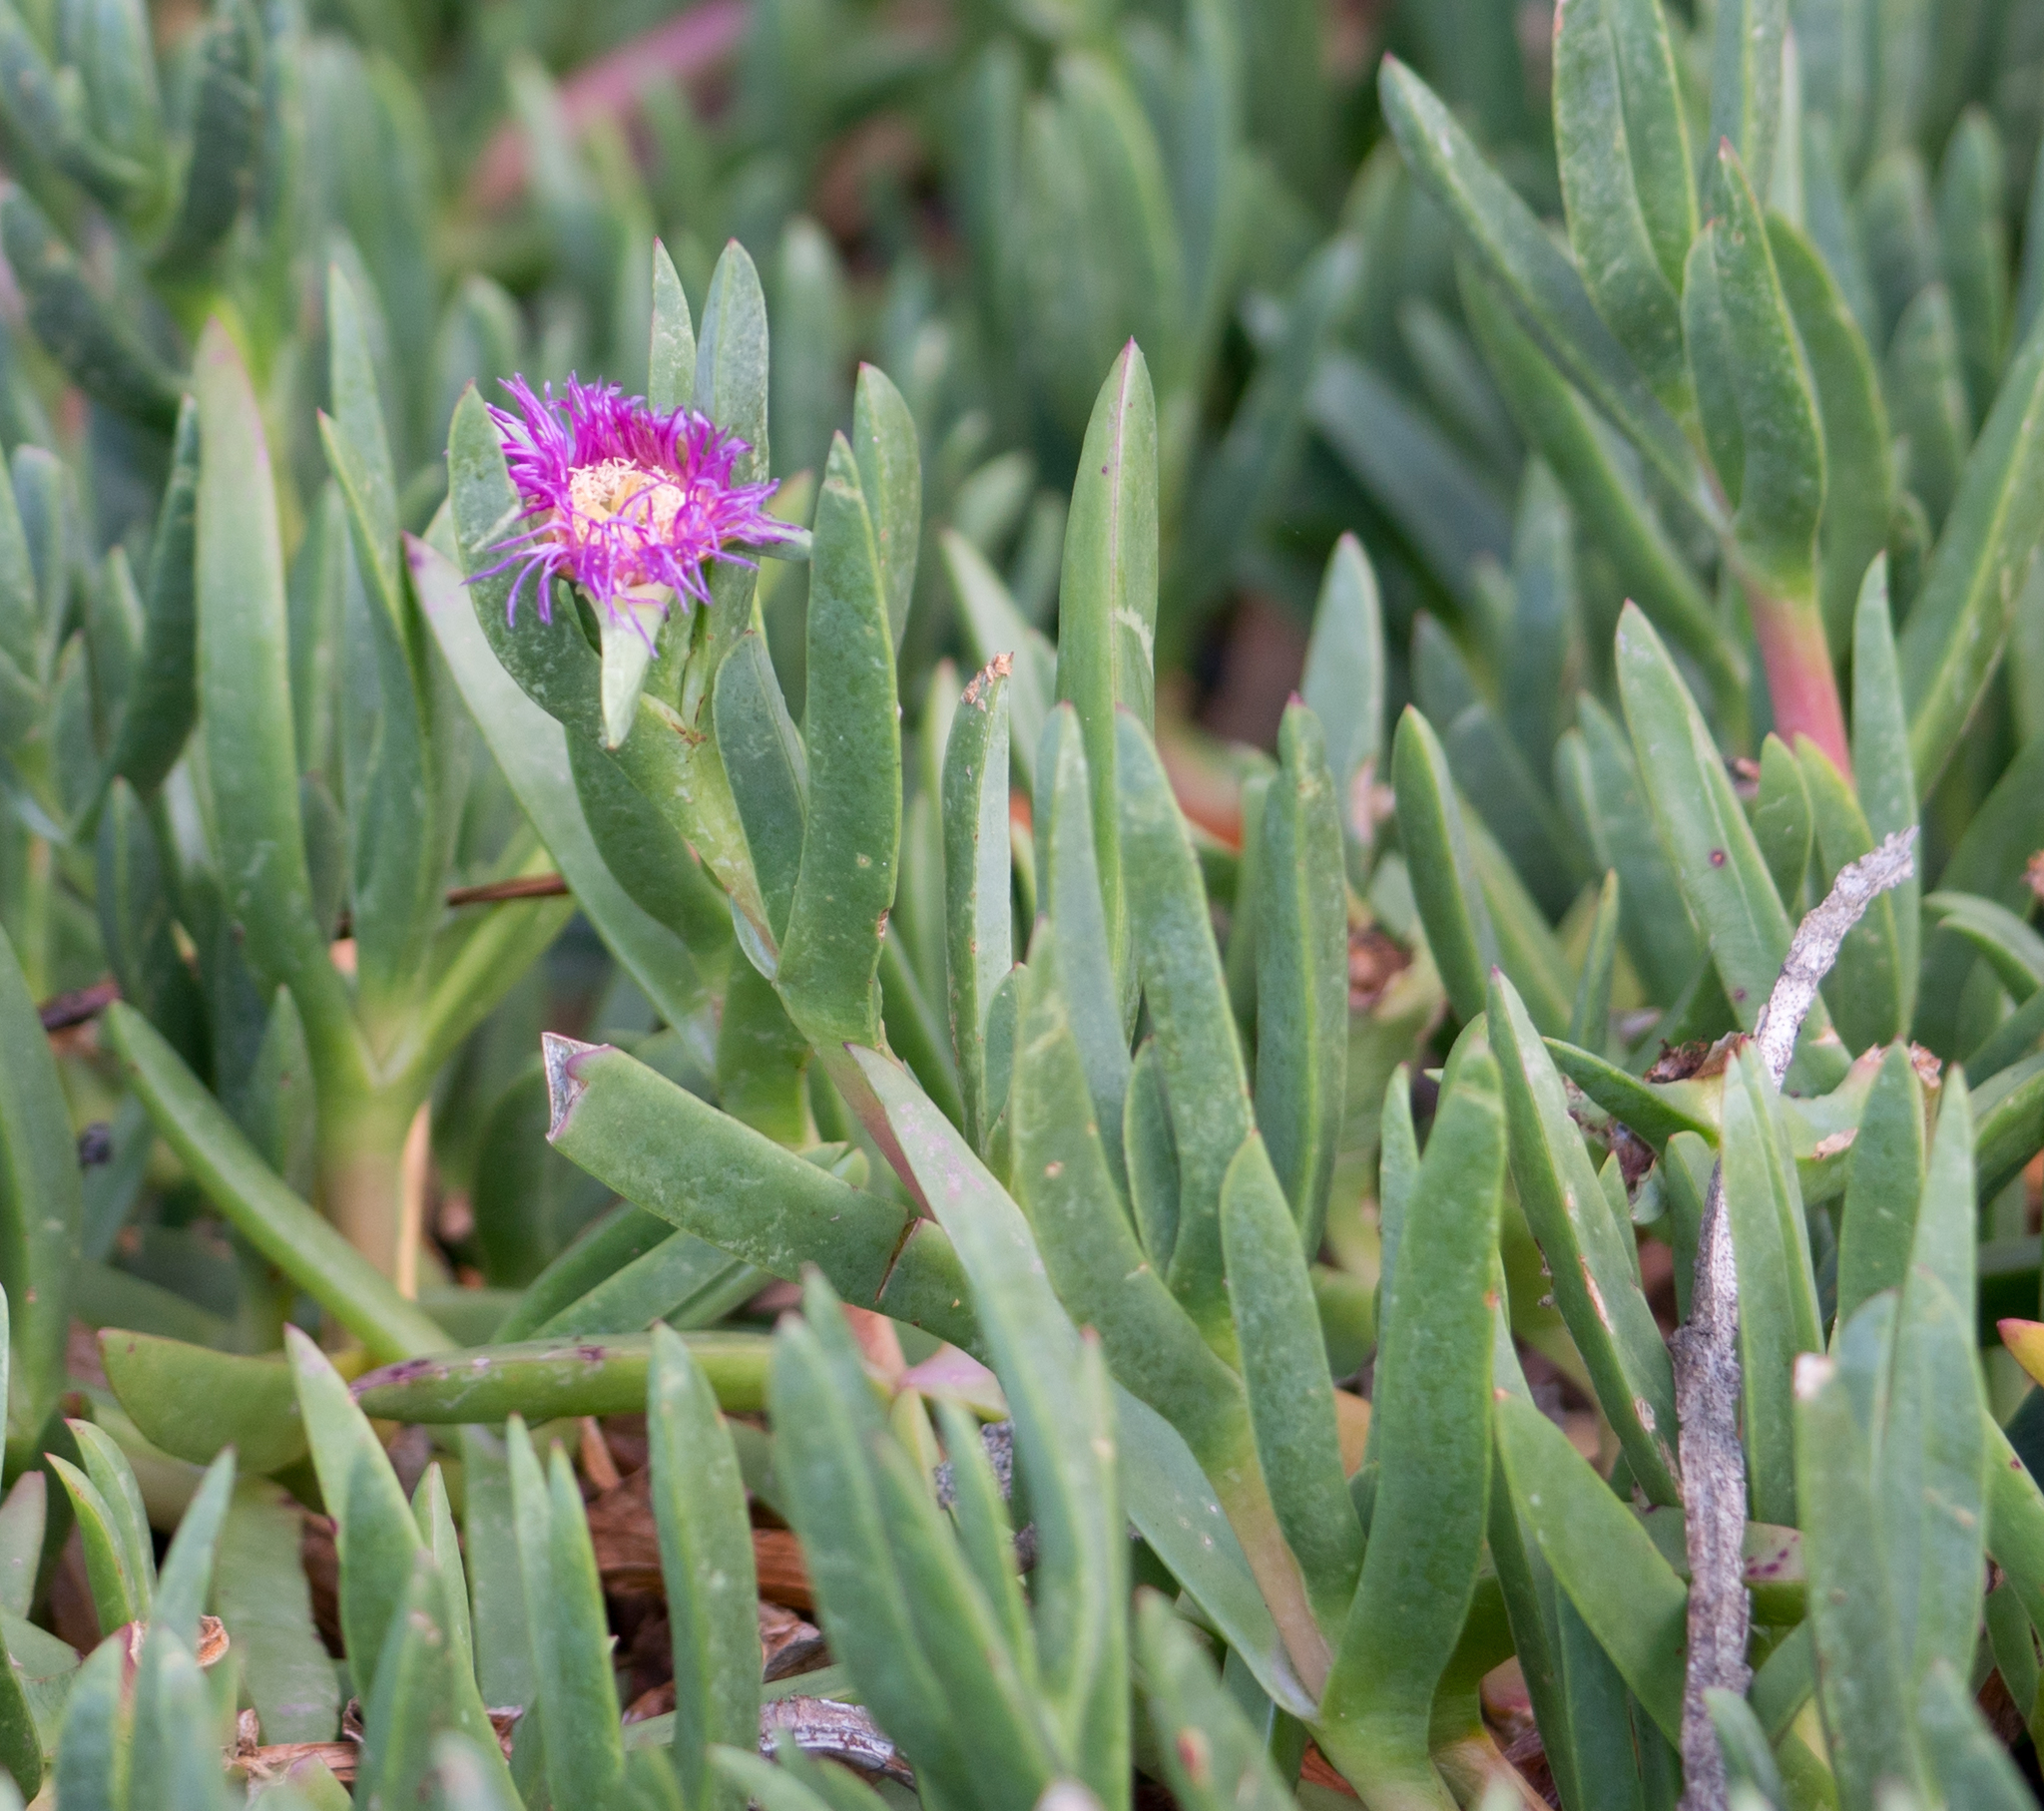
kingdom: Plantae
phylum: Tracheophyta
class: Magnoliopsida
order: Caryophyllales
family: Aizoaceae
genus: Carpobrotus
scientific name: Carpobrotus chilensis
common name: Sea fig
